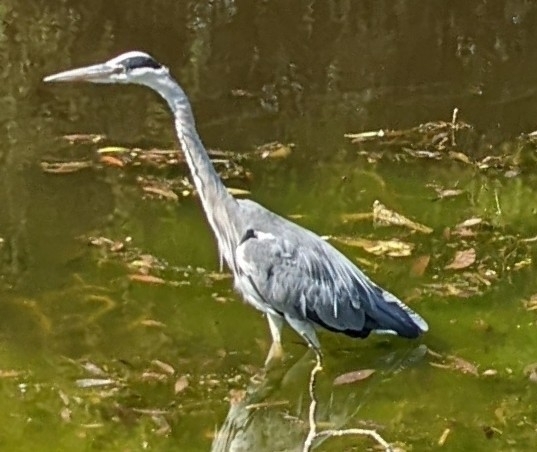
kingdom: Animalia
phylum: Chordata
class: Aves
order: Pelecaniformes
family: Ardeidae
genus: Ardea
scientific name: Ardea cinerea
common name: Grey heron
